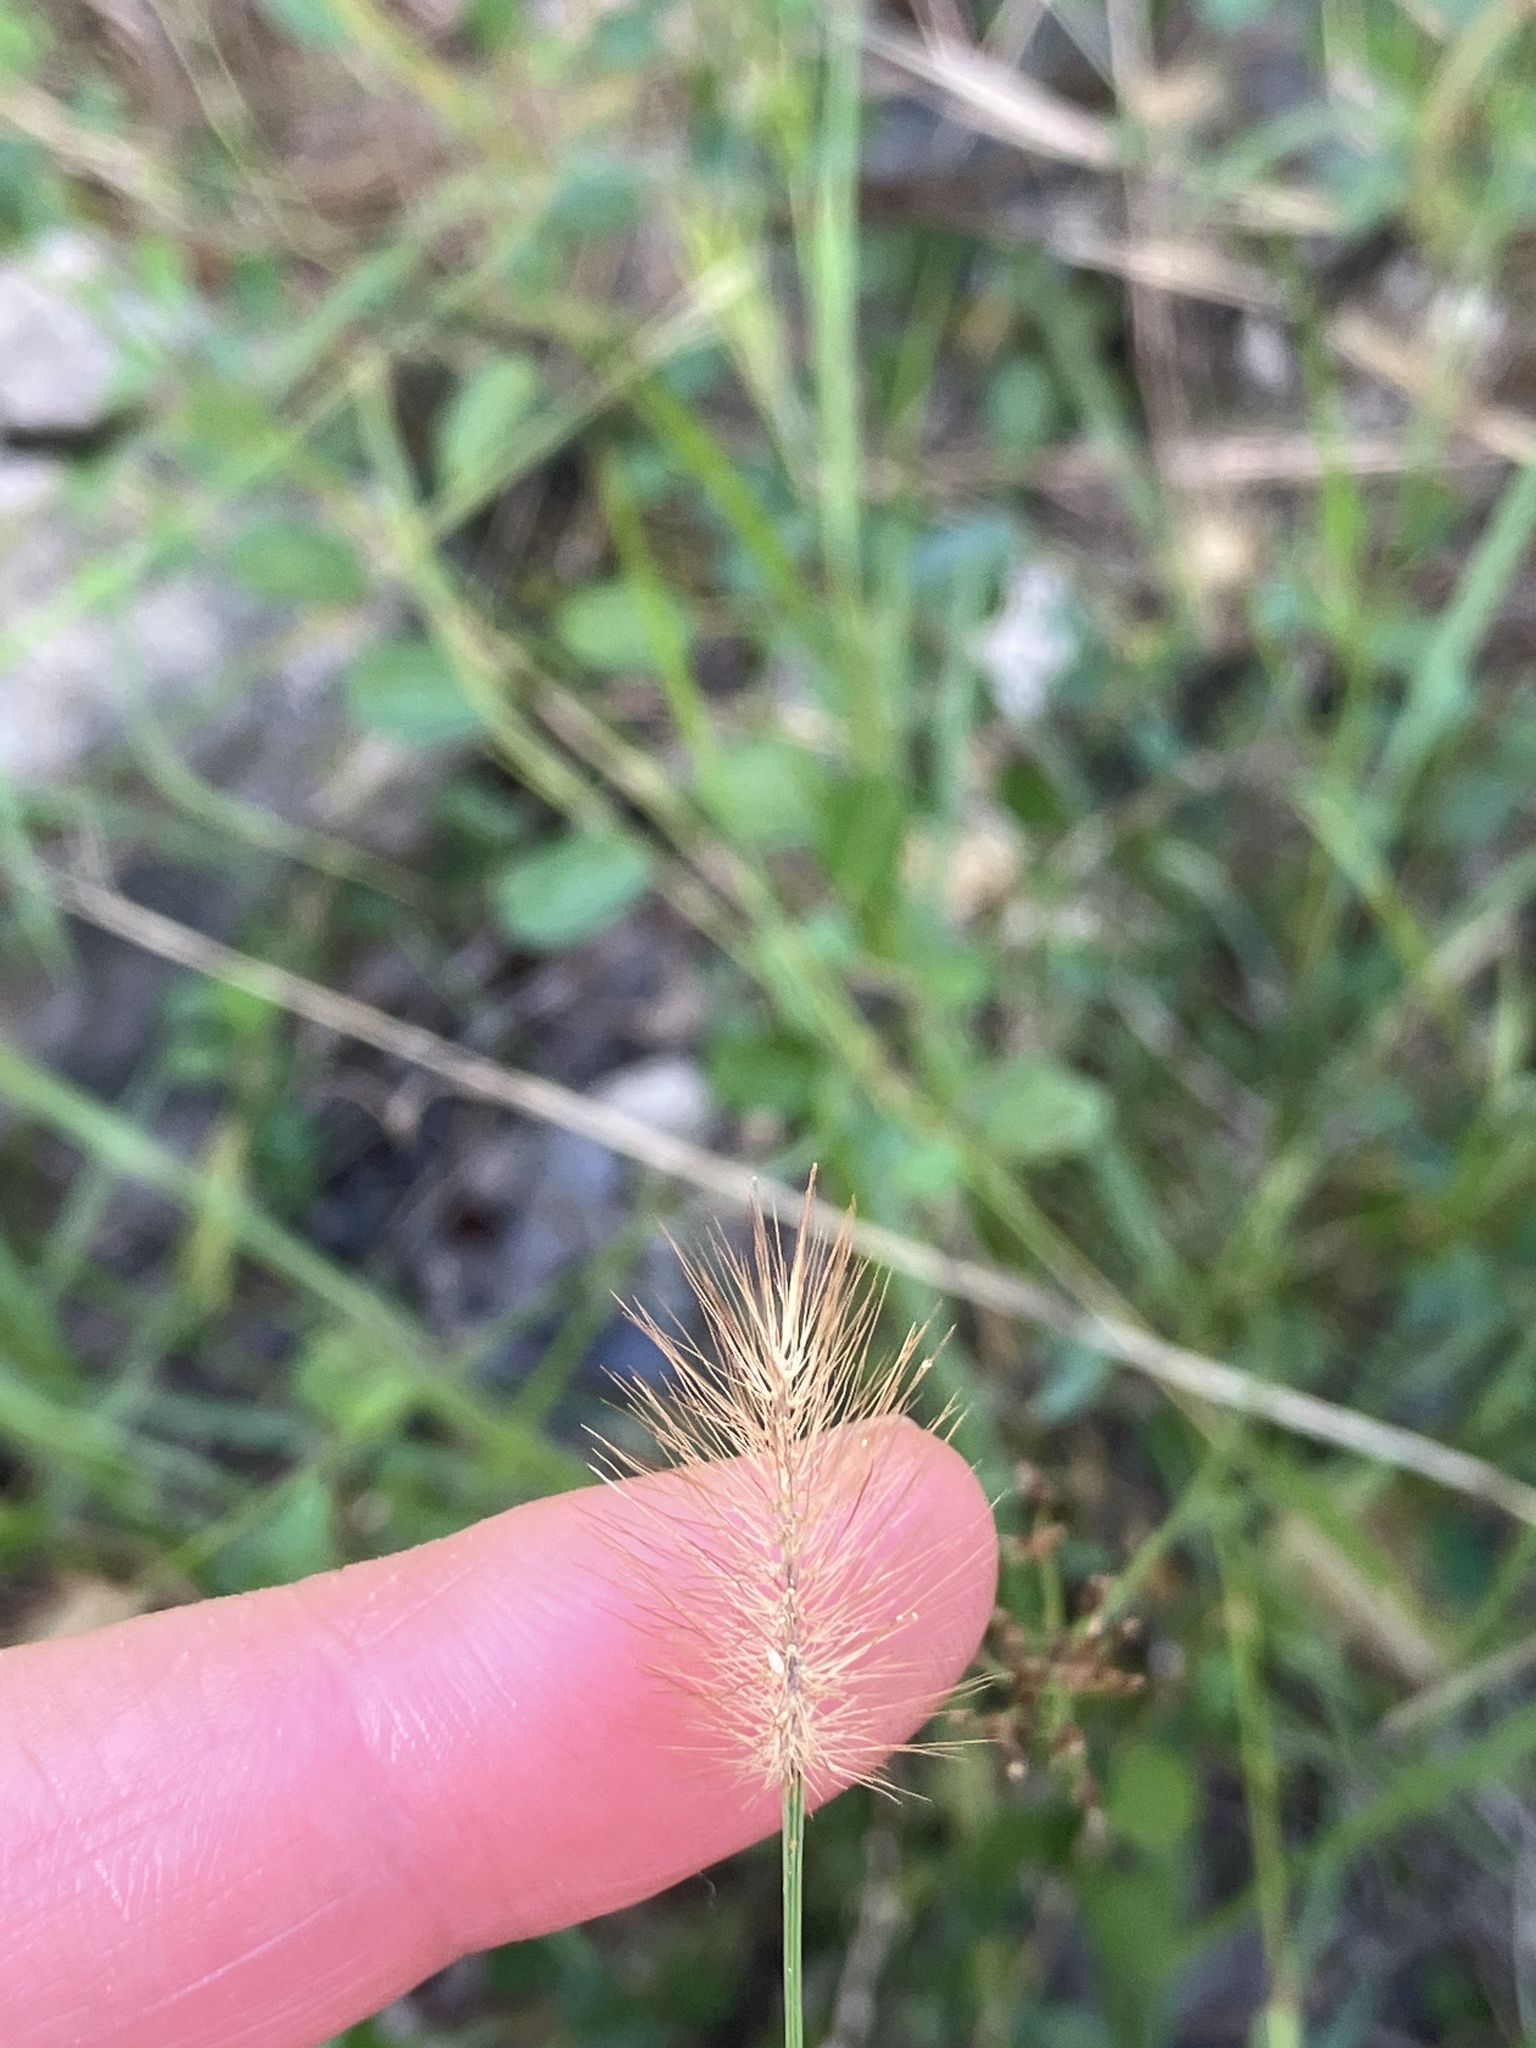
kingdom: Plantae
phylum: Tracheophyta
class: Liliopsida
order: Poales
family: Poaceae
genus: Setaria
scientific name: Setaria parviflora
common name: Knotroot bristle-grass
